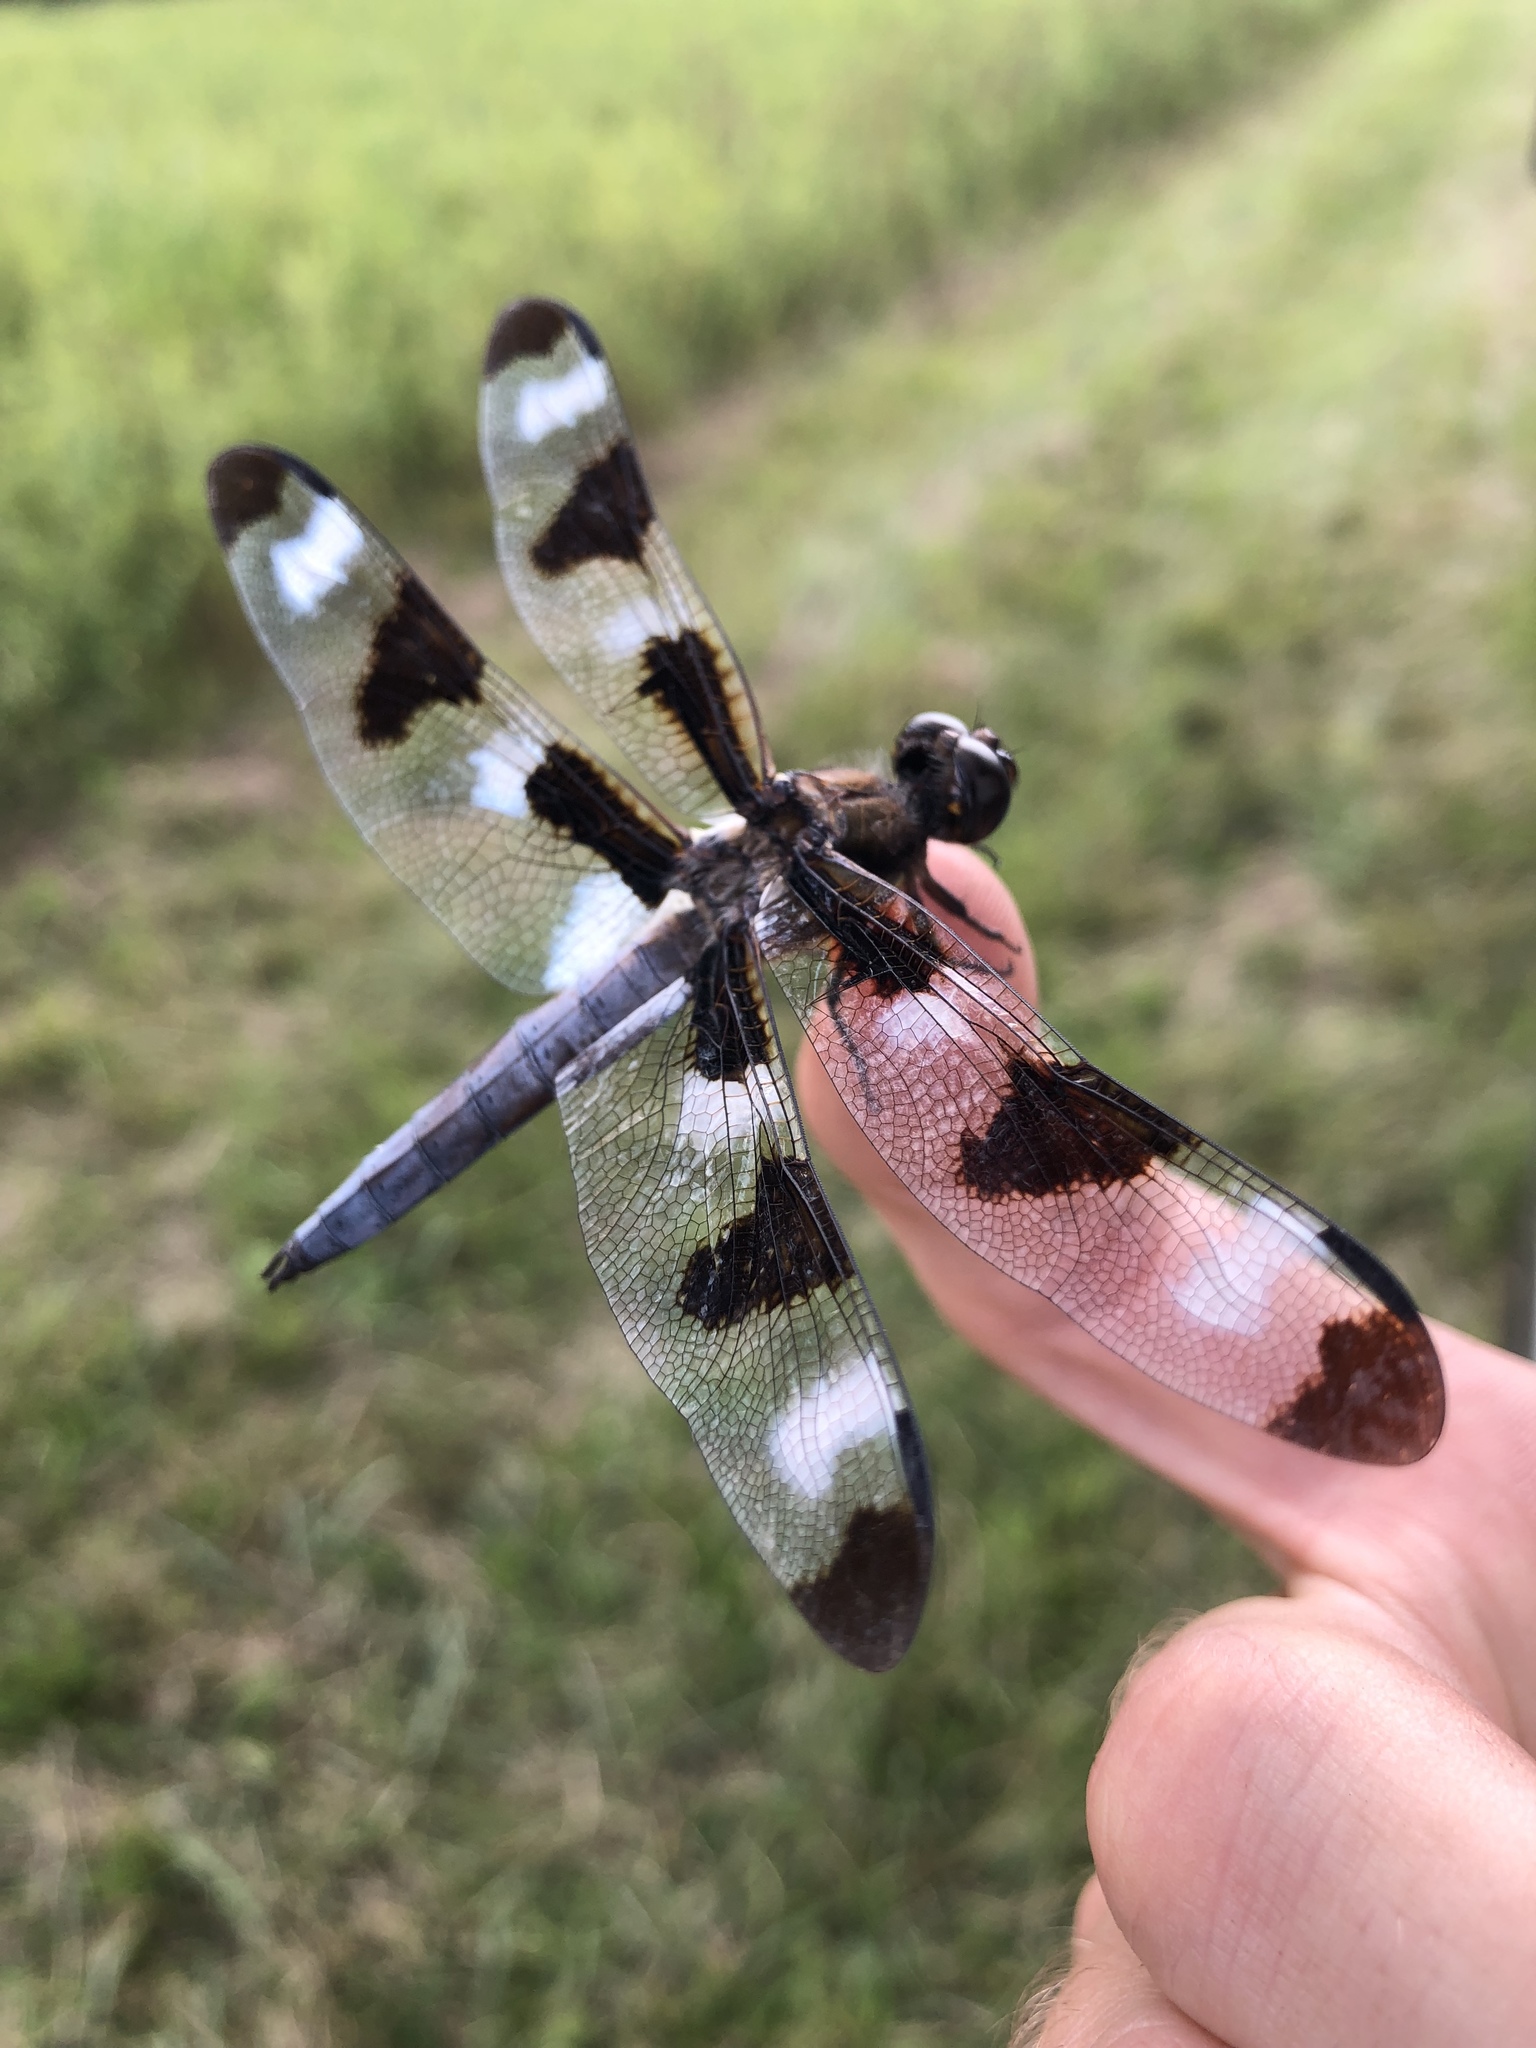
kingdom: Animalia
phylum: Arthropoda
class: Insecta
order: Odonata
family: Libellulidae
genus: Libellula
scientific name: Libellula pulchella
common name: Twelve-spotted skimmer
